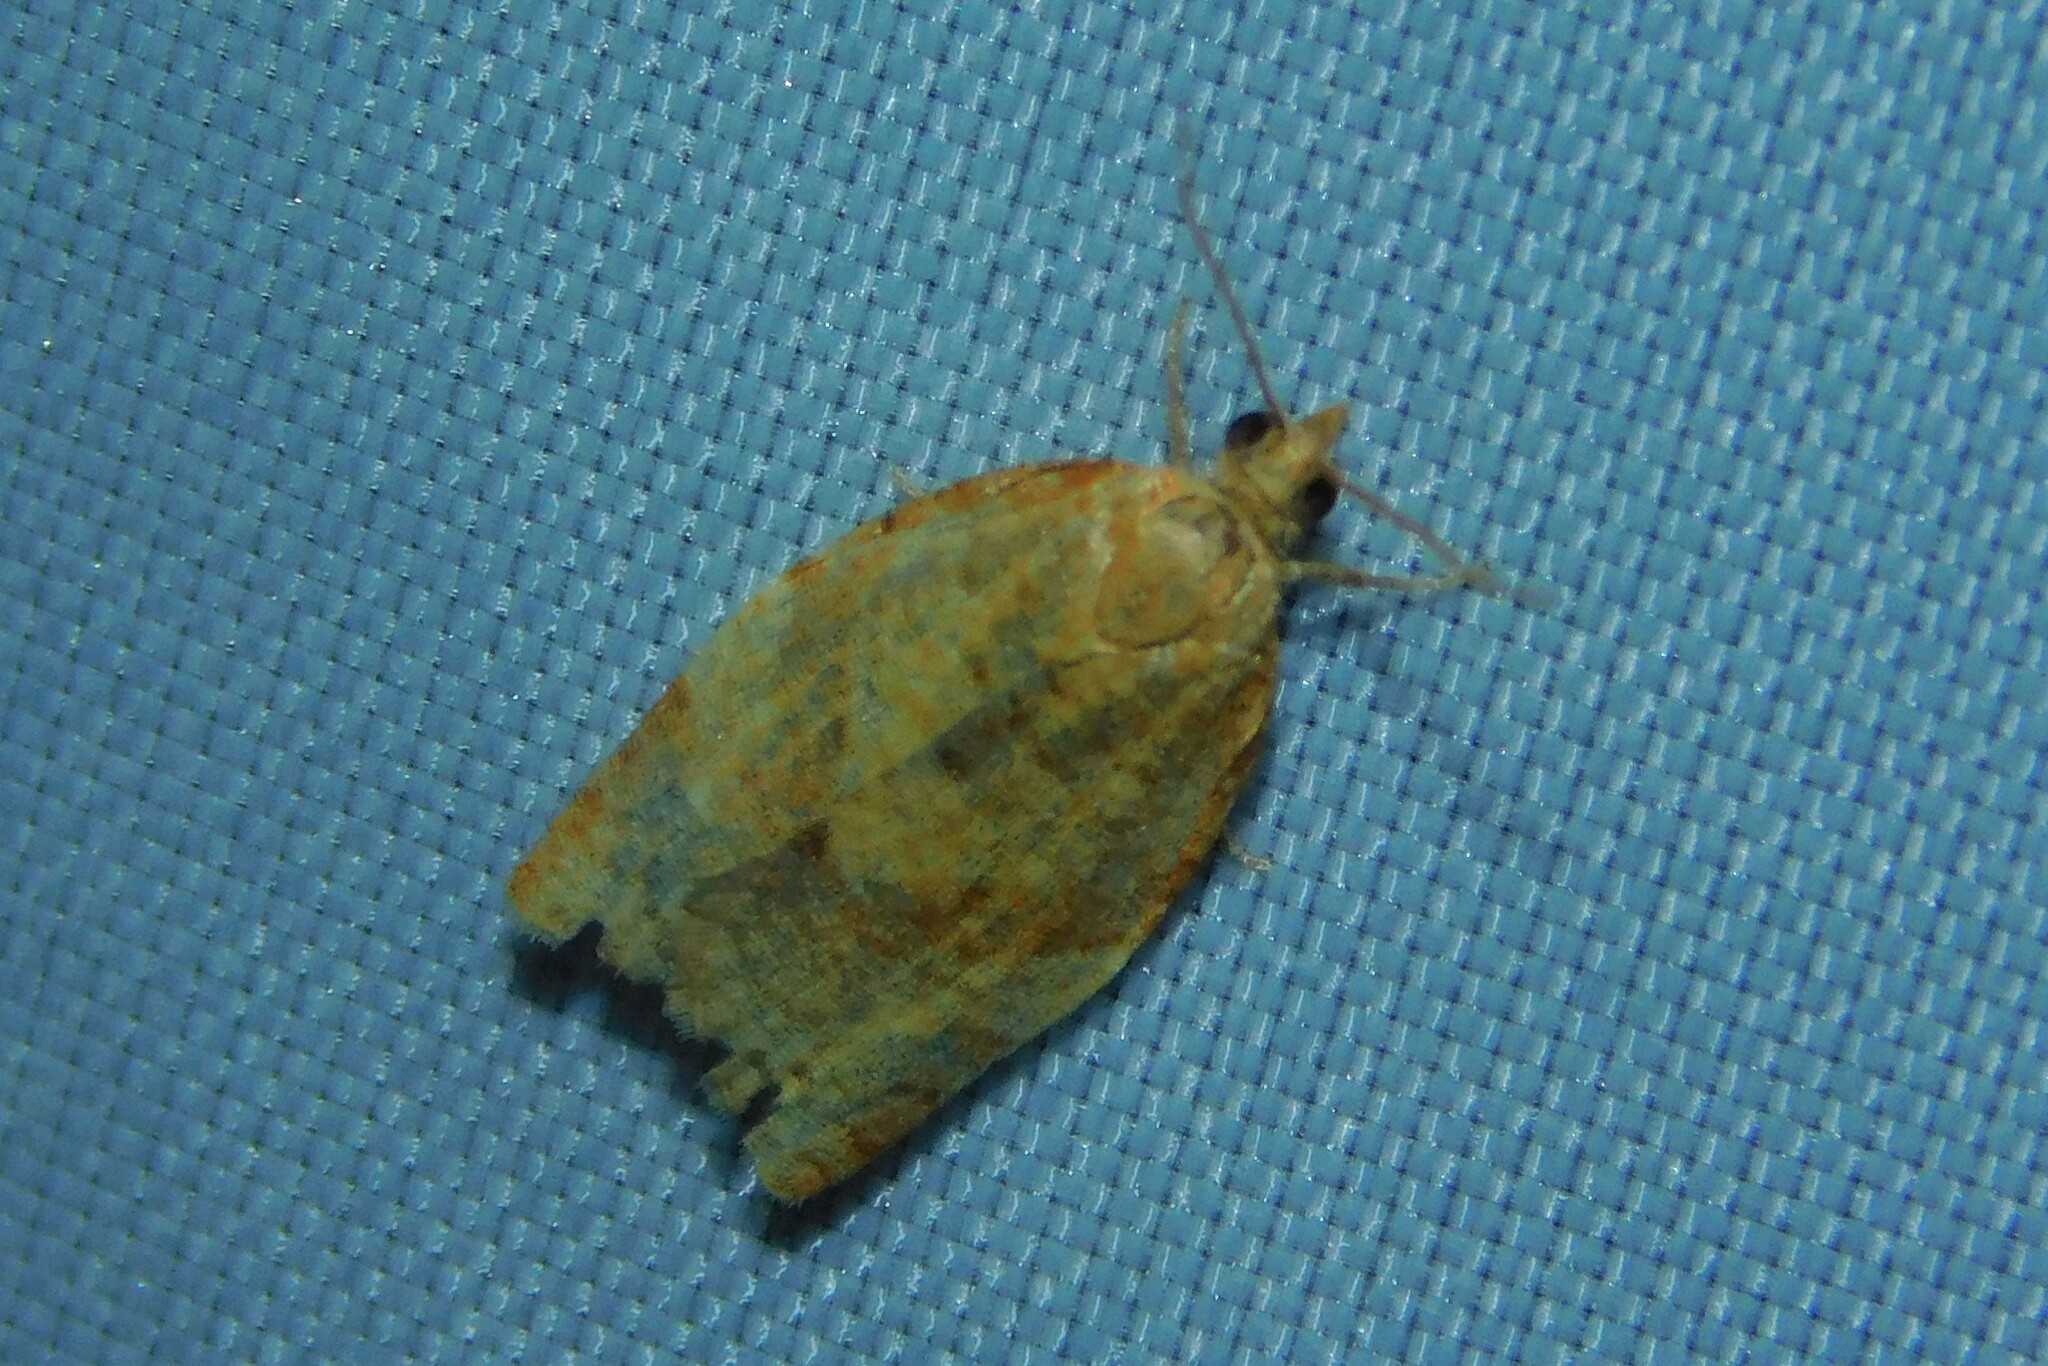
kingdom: Animalia
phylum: Arthropoda
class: Insecta
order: Lepidoptera
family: Tortricidae
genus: Clepsis
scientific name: Clepsis consimilana
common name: Privet tortrix
